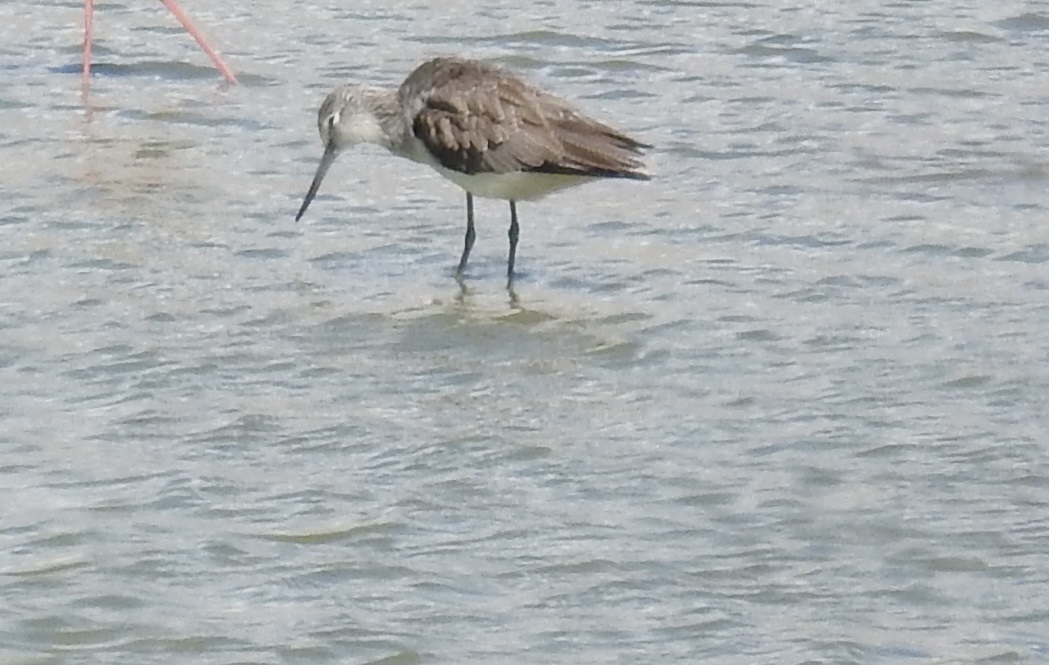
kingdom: Animalia
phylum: Chordata
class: Aves
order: Charadriiformes
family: Scolopacidae
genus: Tringa
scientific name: Tringa nebularia
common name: Common greenshank
